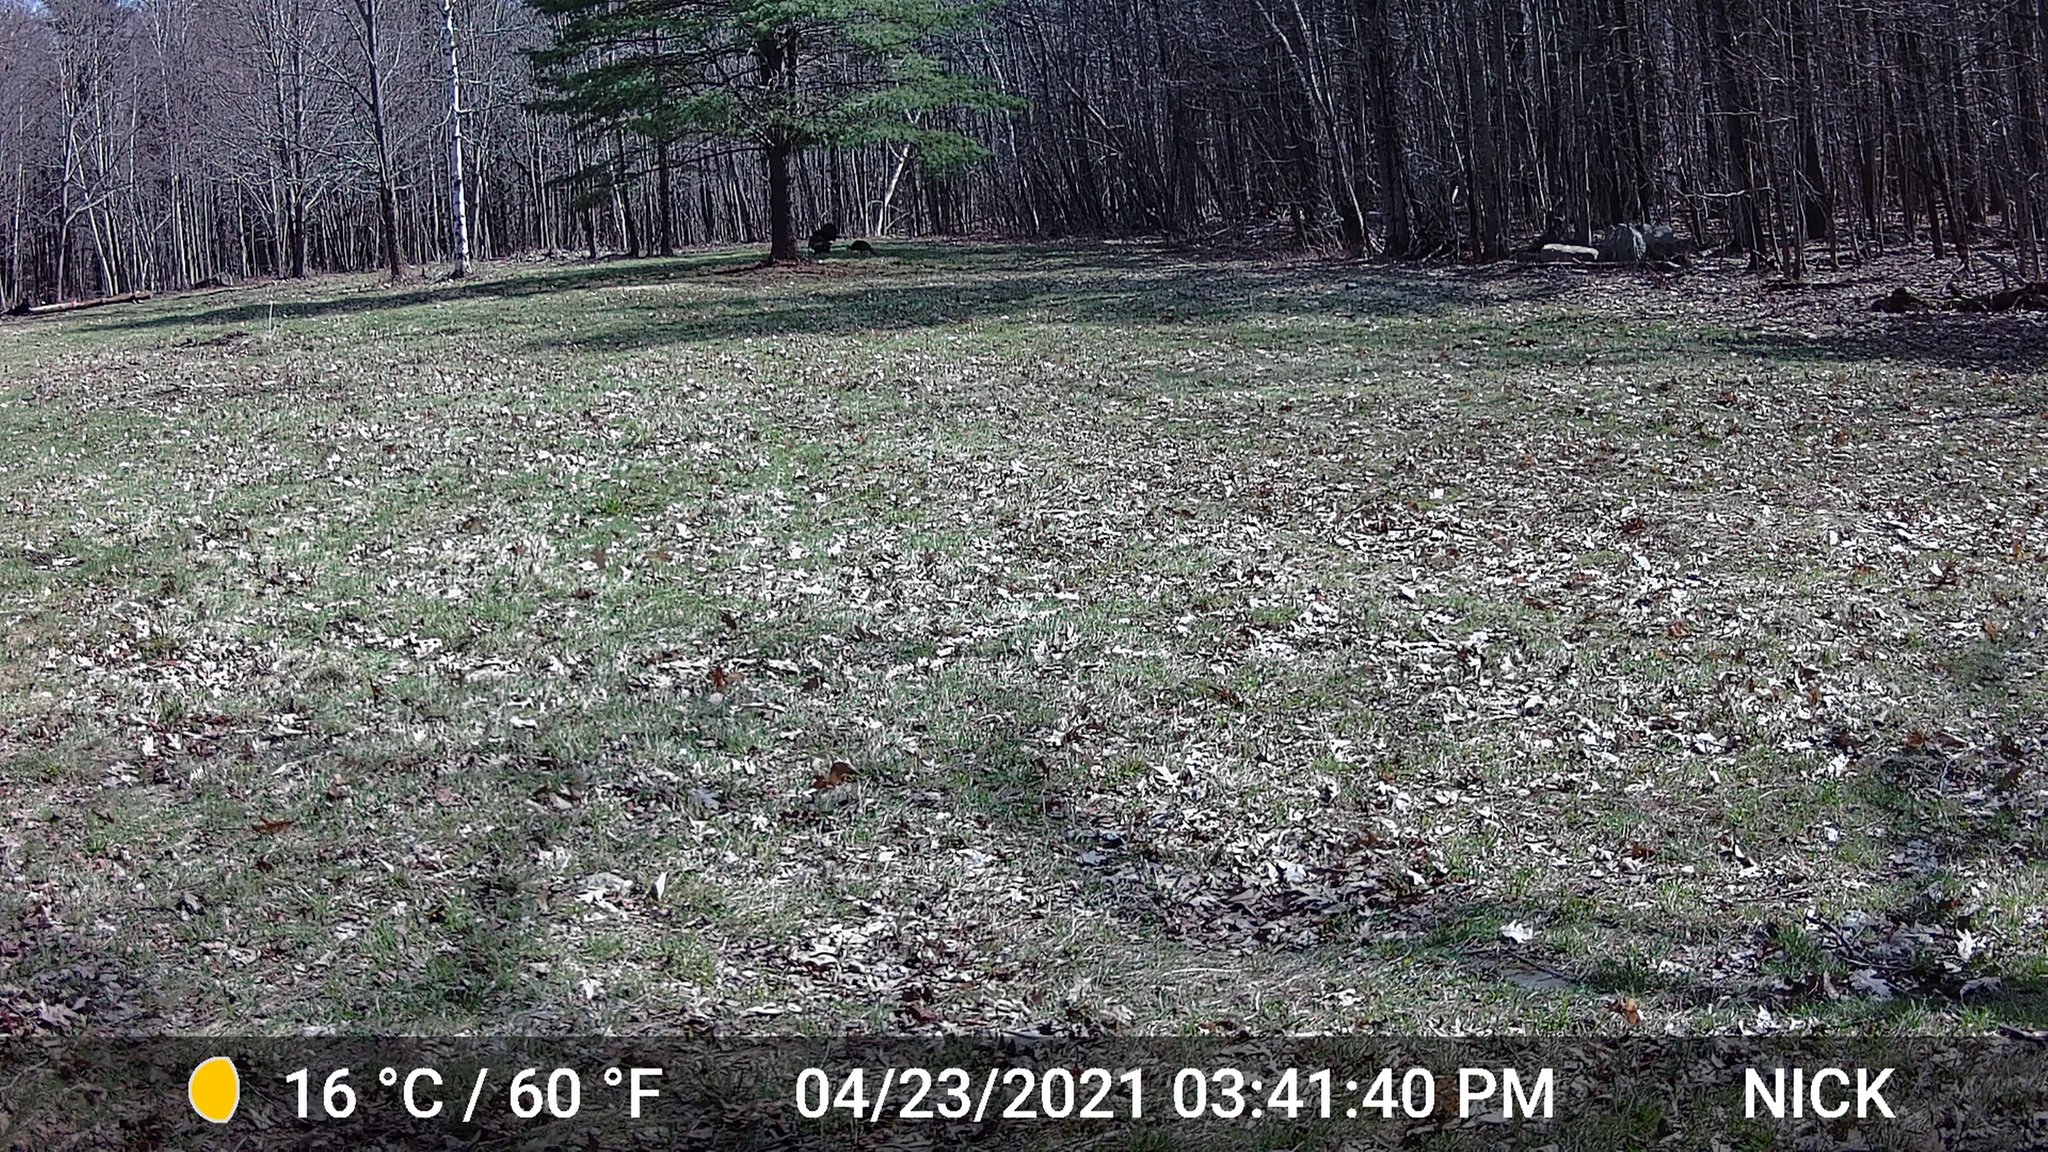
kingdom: Animalia
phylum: Chordata
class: Aves
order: Galliformes
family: Phasianidae
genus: Meleagris
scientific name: Meleagris gallopavo
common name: Wild turkey
